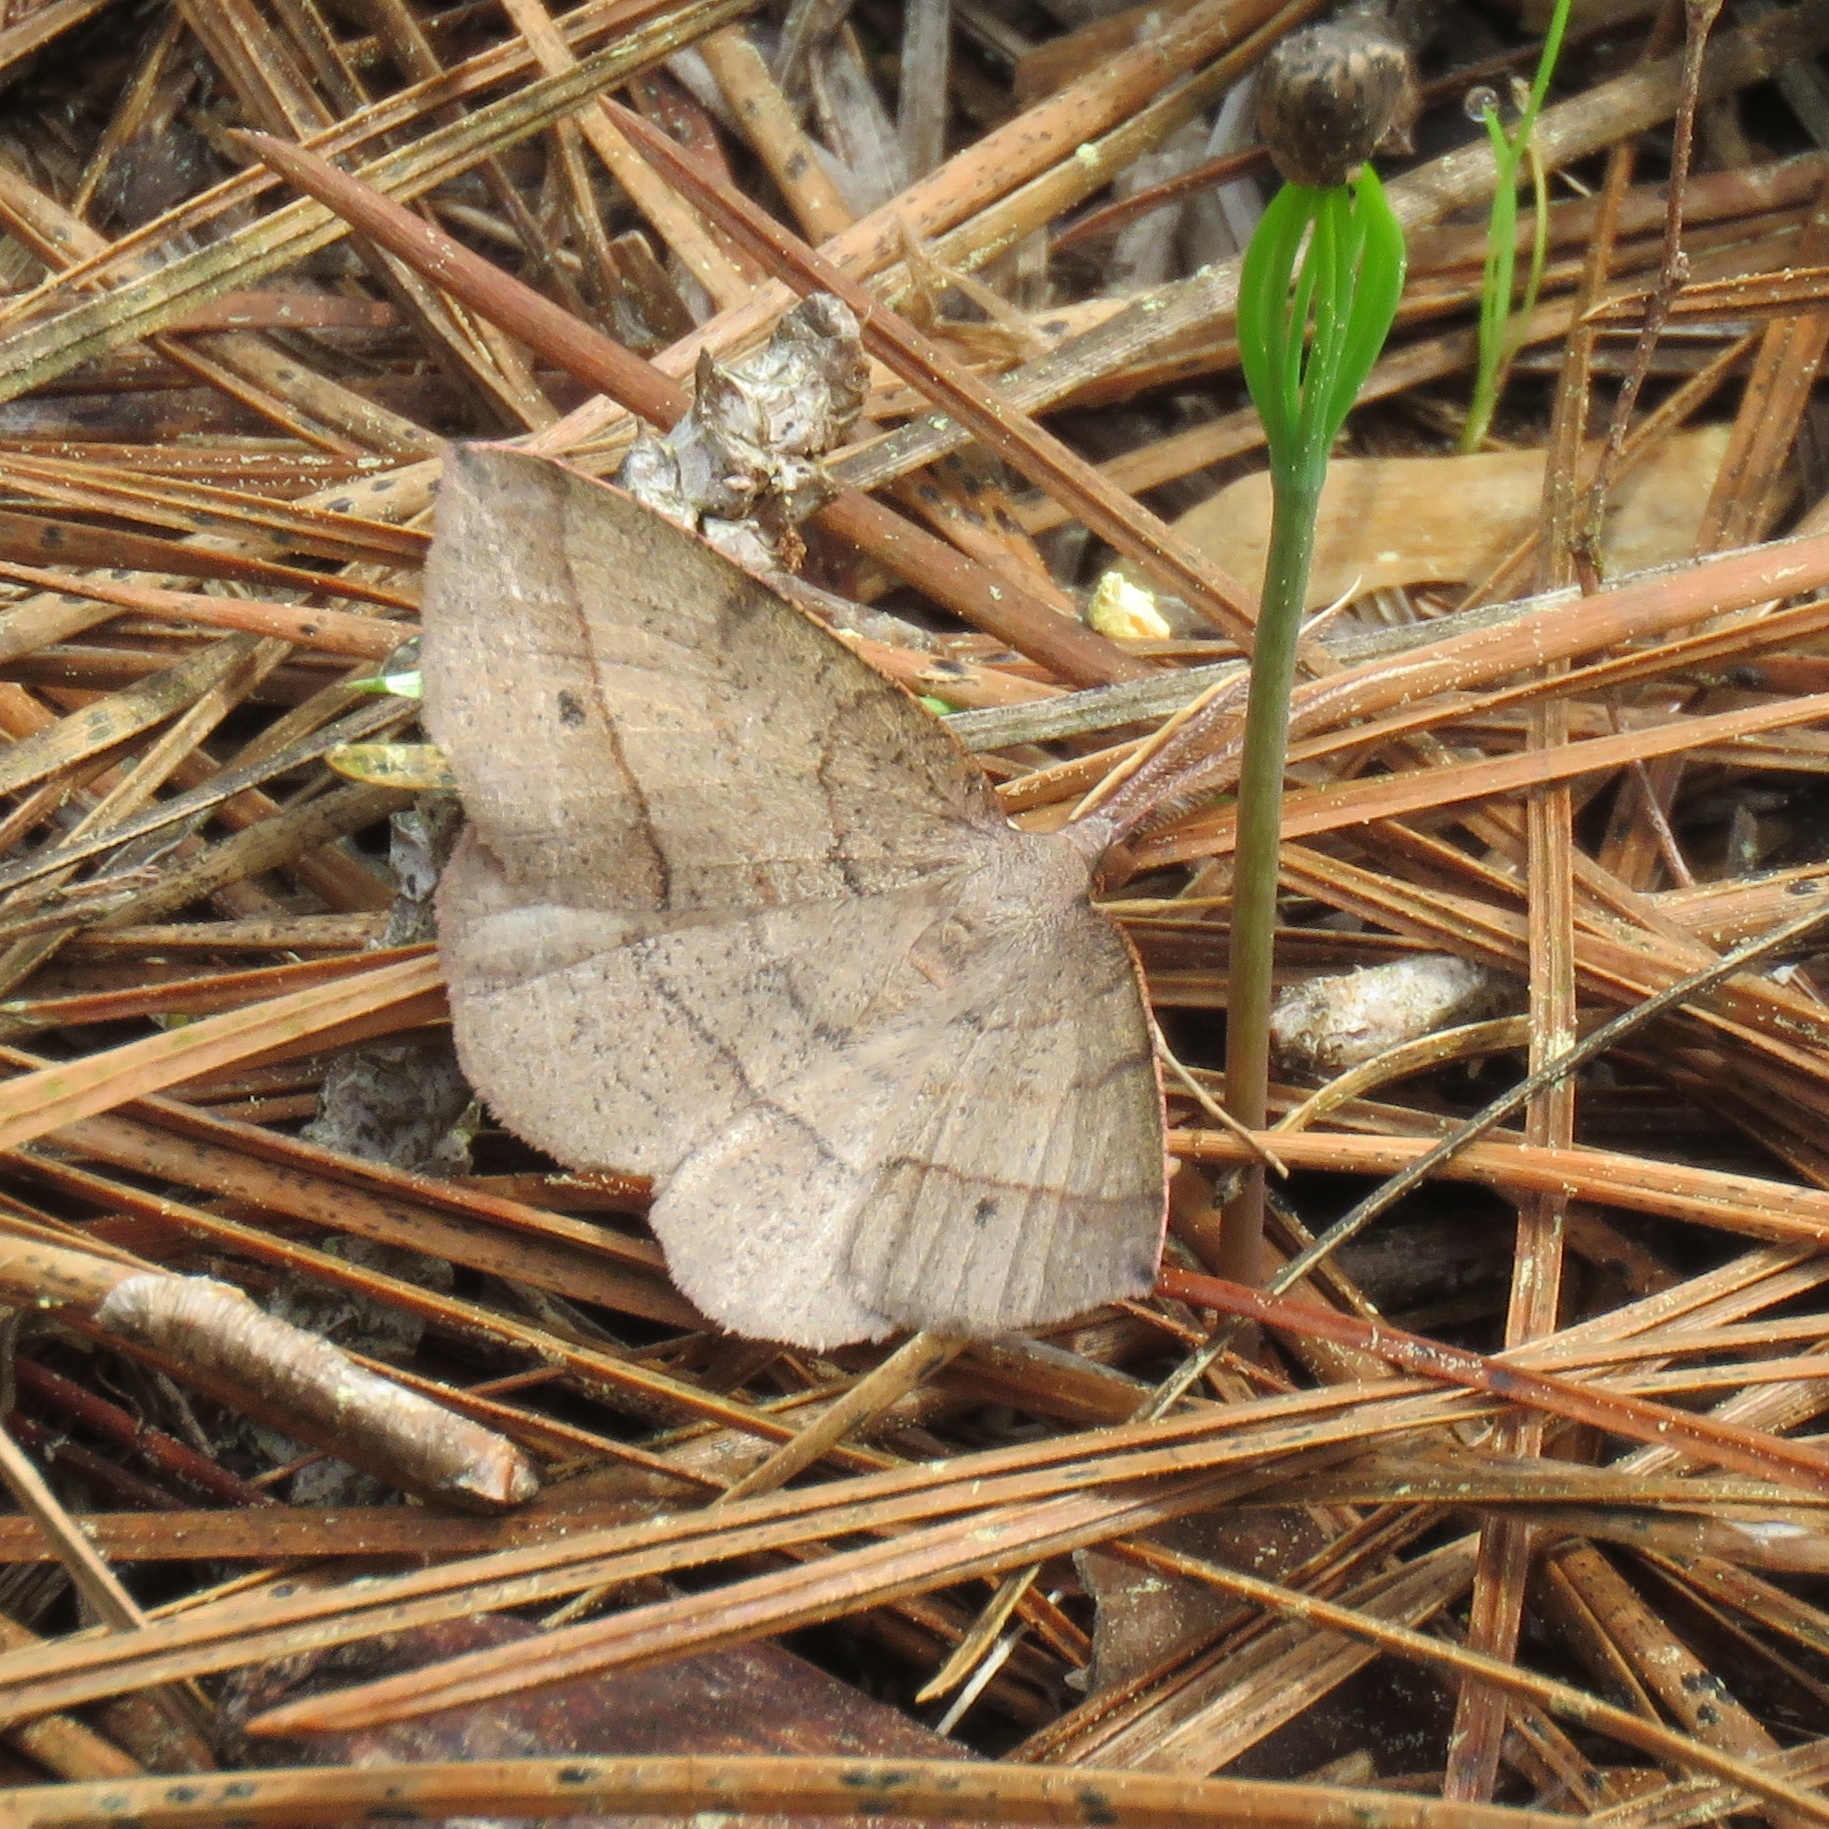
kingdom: Animalia
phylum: Arthropoda
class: Insecta
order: Lepidoptera
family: Geometridae
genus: Erastria
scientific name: Erastria cruentaria
